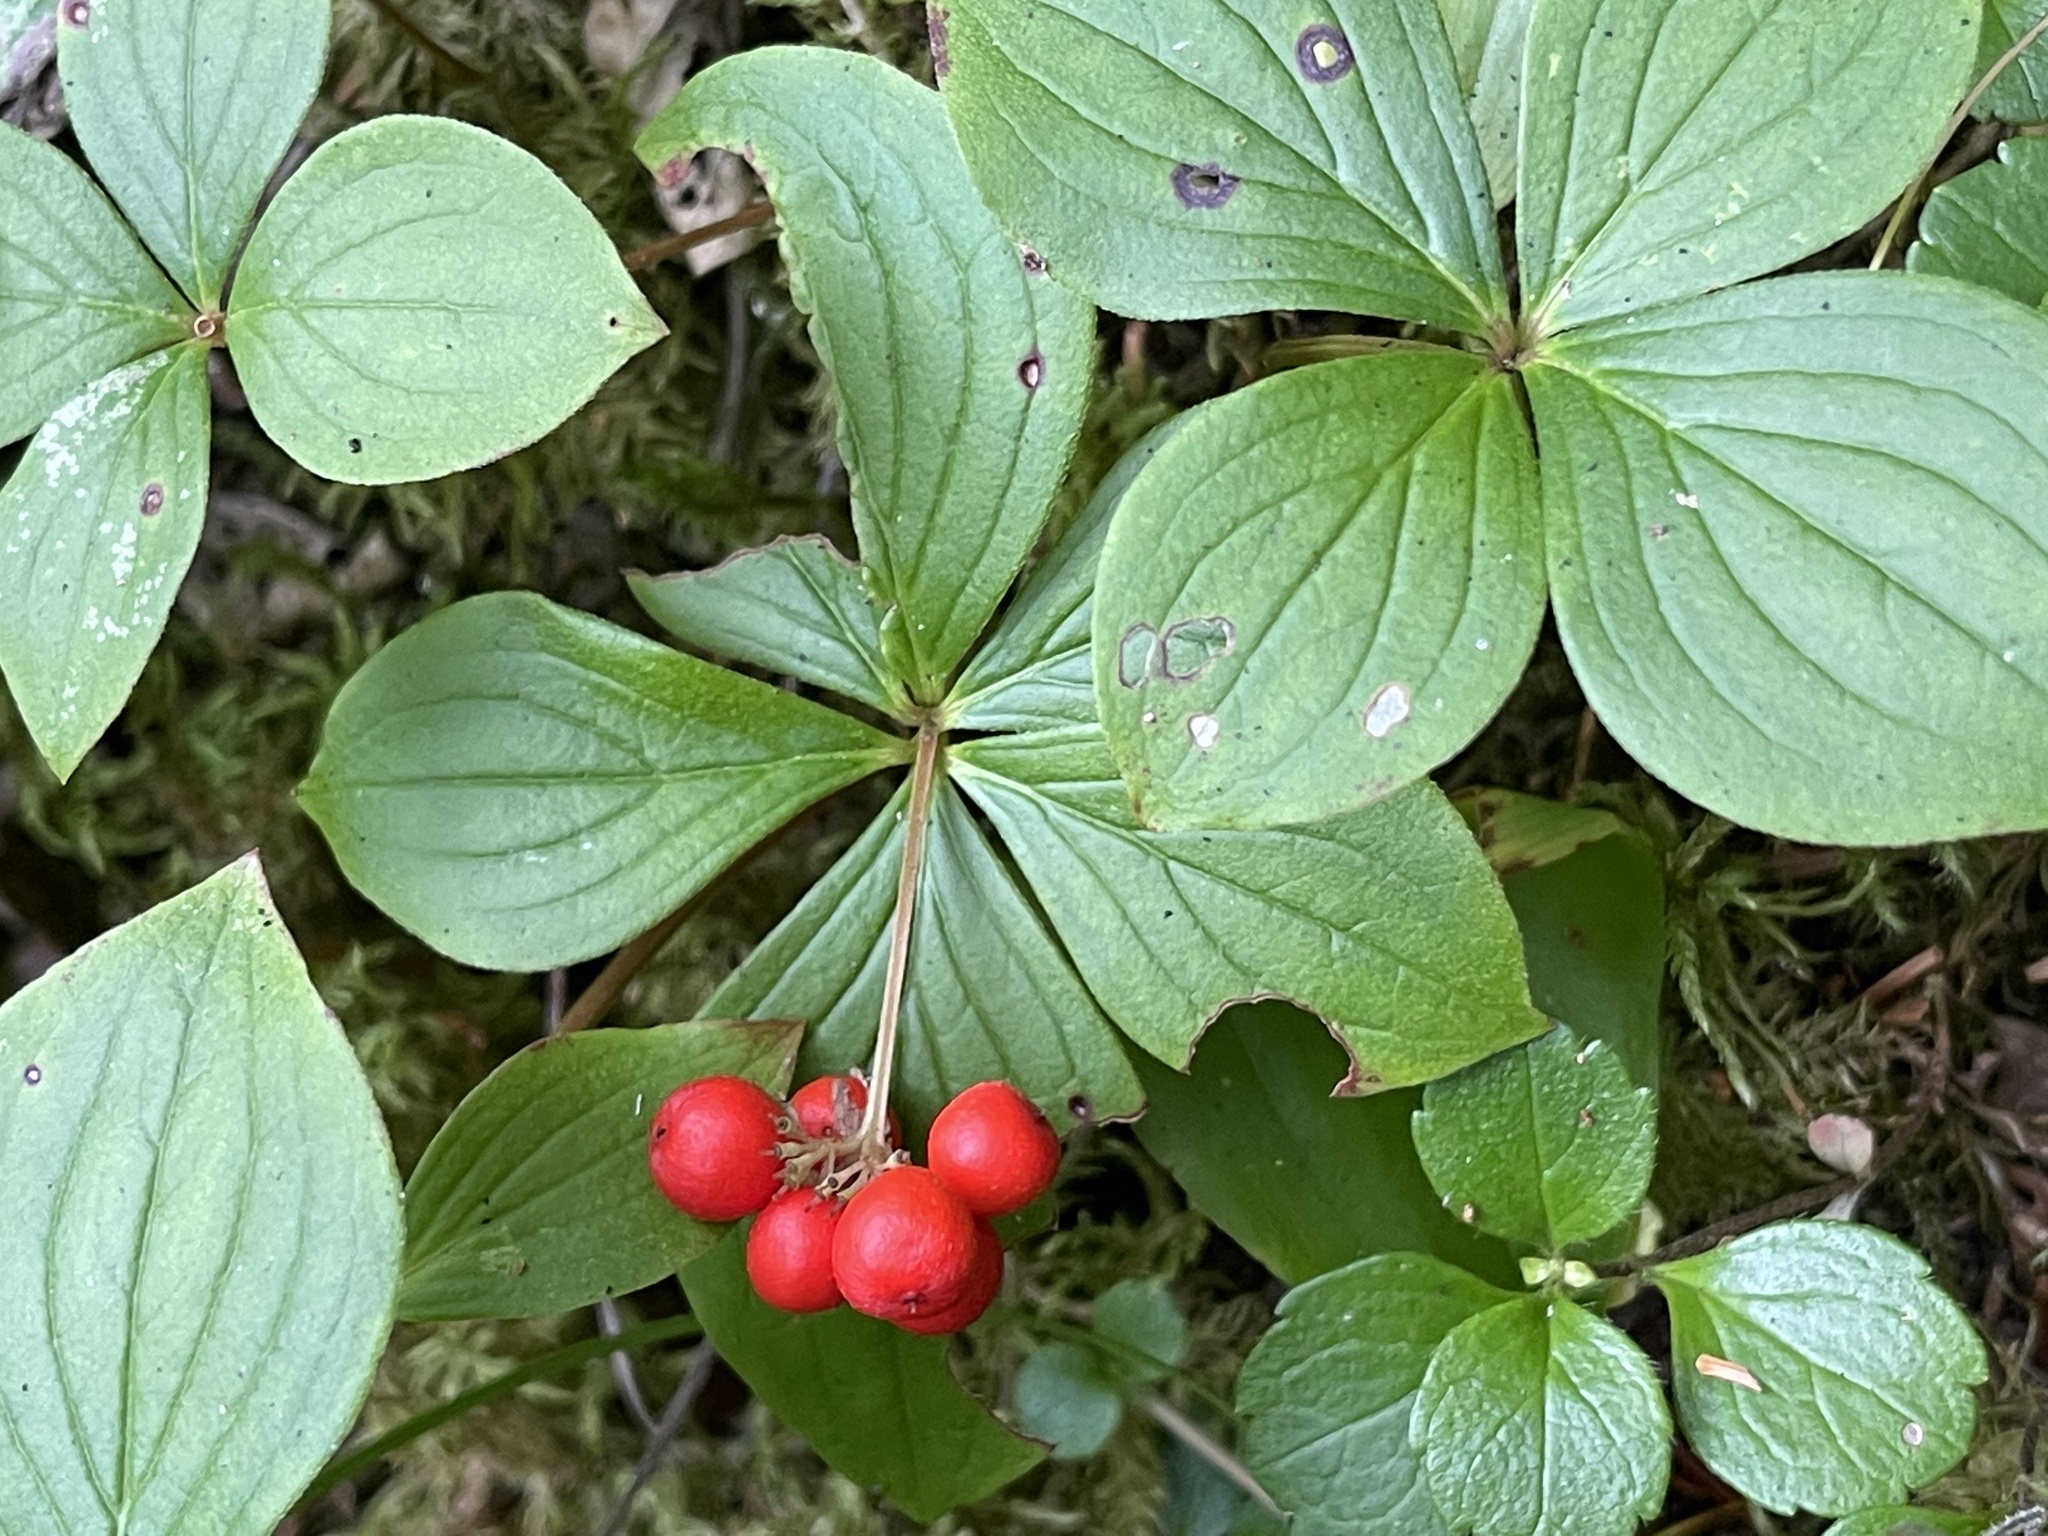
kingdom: Plantae
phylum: Tracheophyta
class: Magnoliopsida
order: Cornales
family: Cornaceae
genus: Cornus
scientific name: Cornus canadensis
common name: Creeping dogwood
